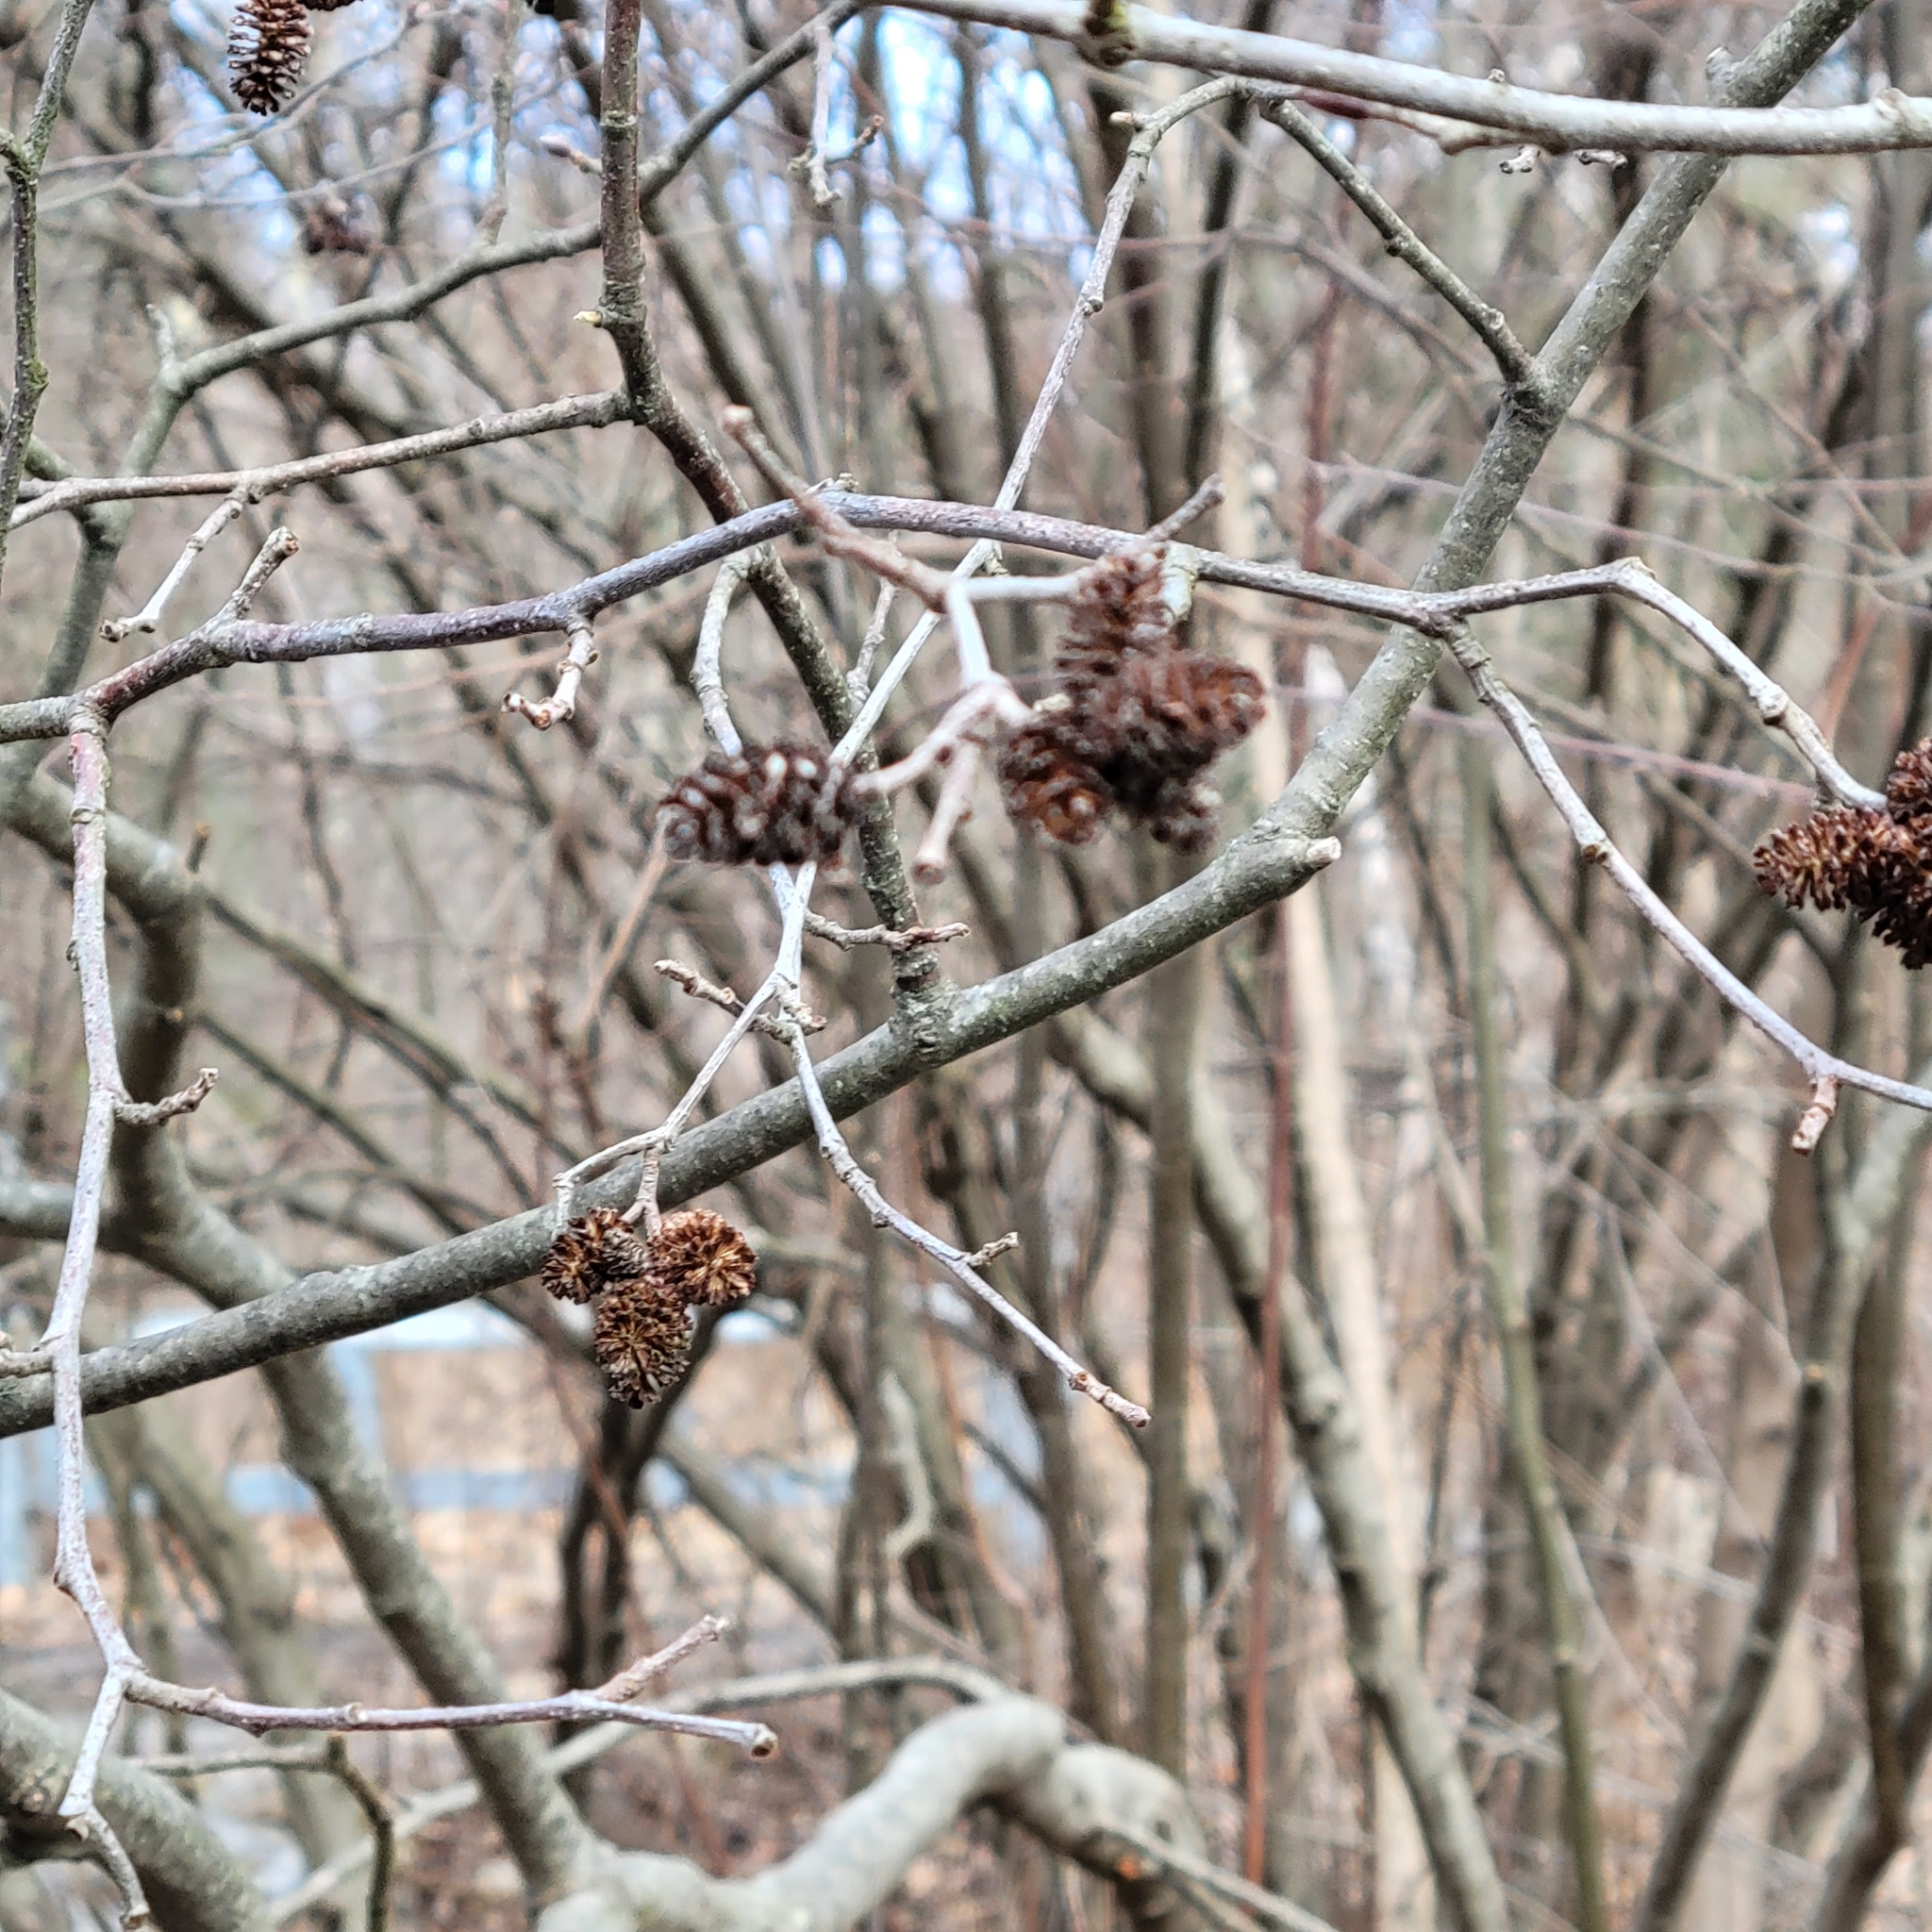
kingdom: Plantae
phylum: Tracheophyta
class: Magnoliopsida
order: Fagales
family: Betulaceae
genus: Alnus
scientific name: Alnus incana
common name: Grey alder
